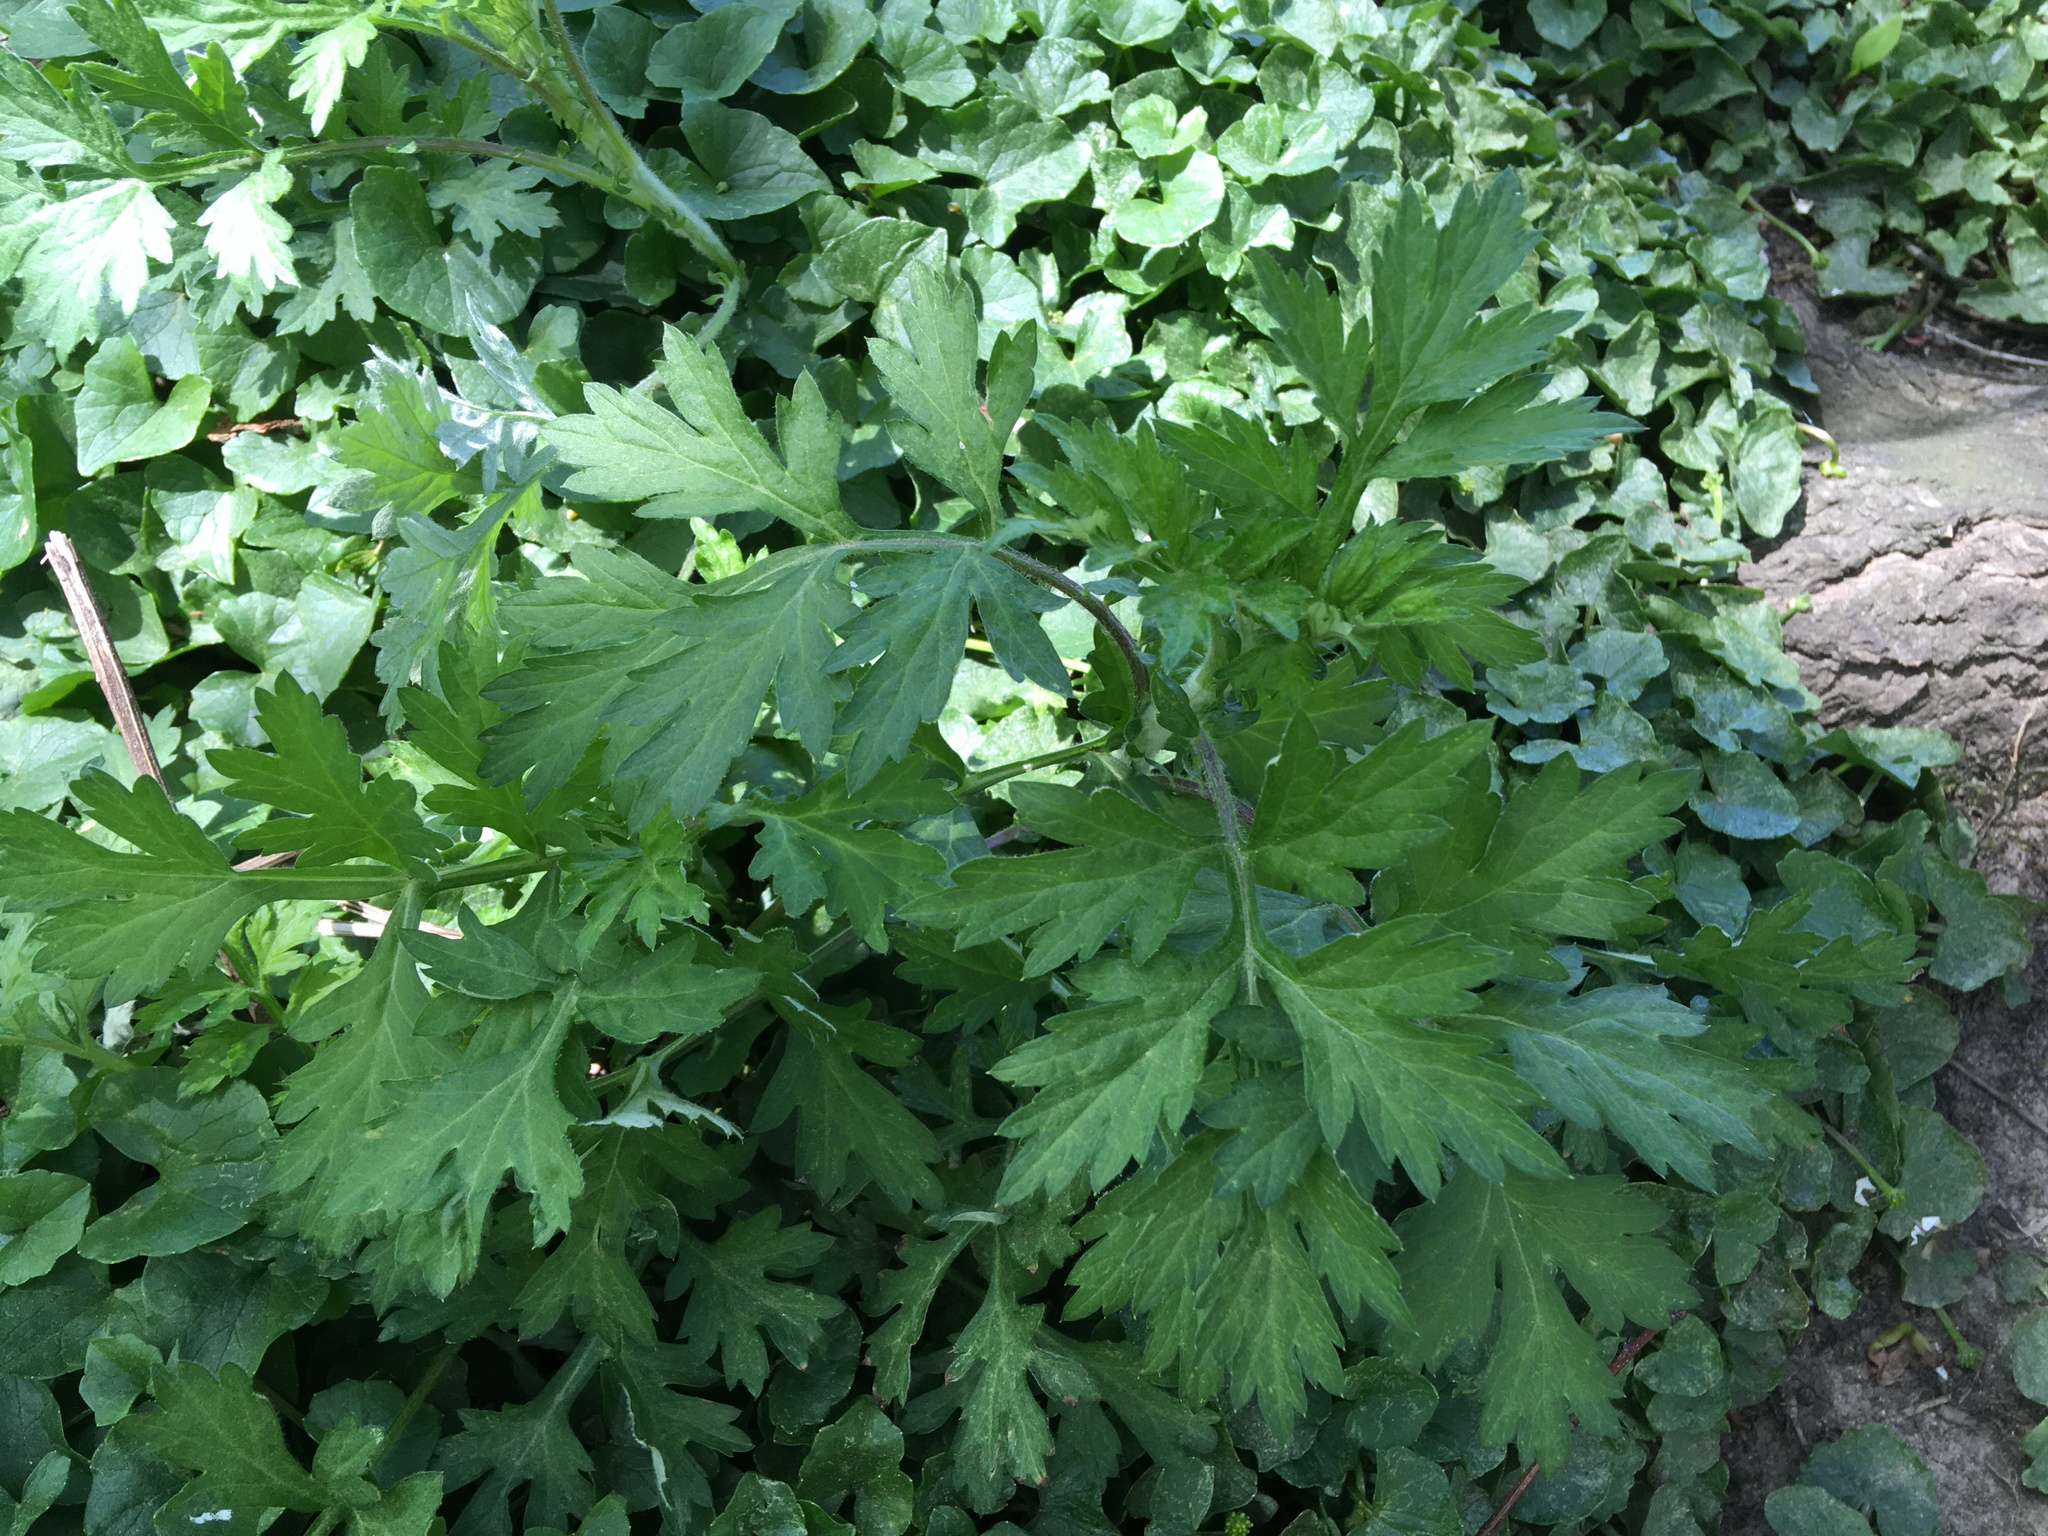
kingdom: Plantae
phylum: Tracheophyta
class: Magnoliopsida
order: Asterales
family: Asteraceae
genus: Artemisia
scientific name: Artemisia vulgaris
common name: Mugwort
